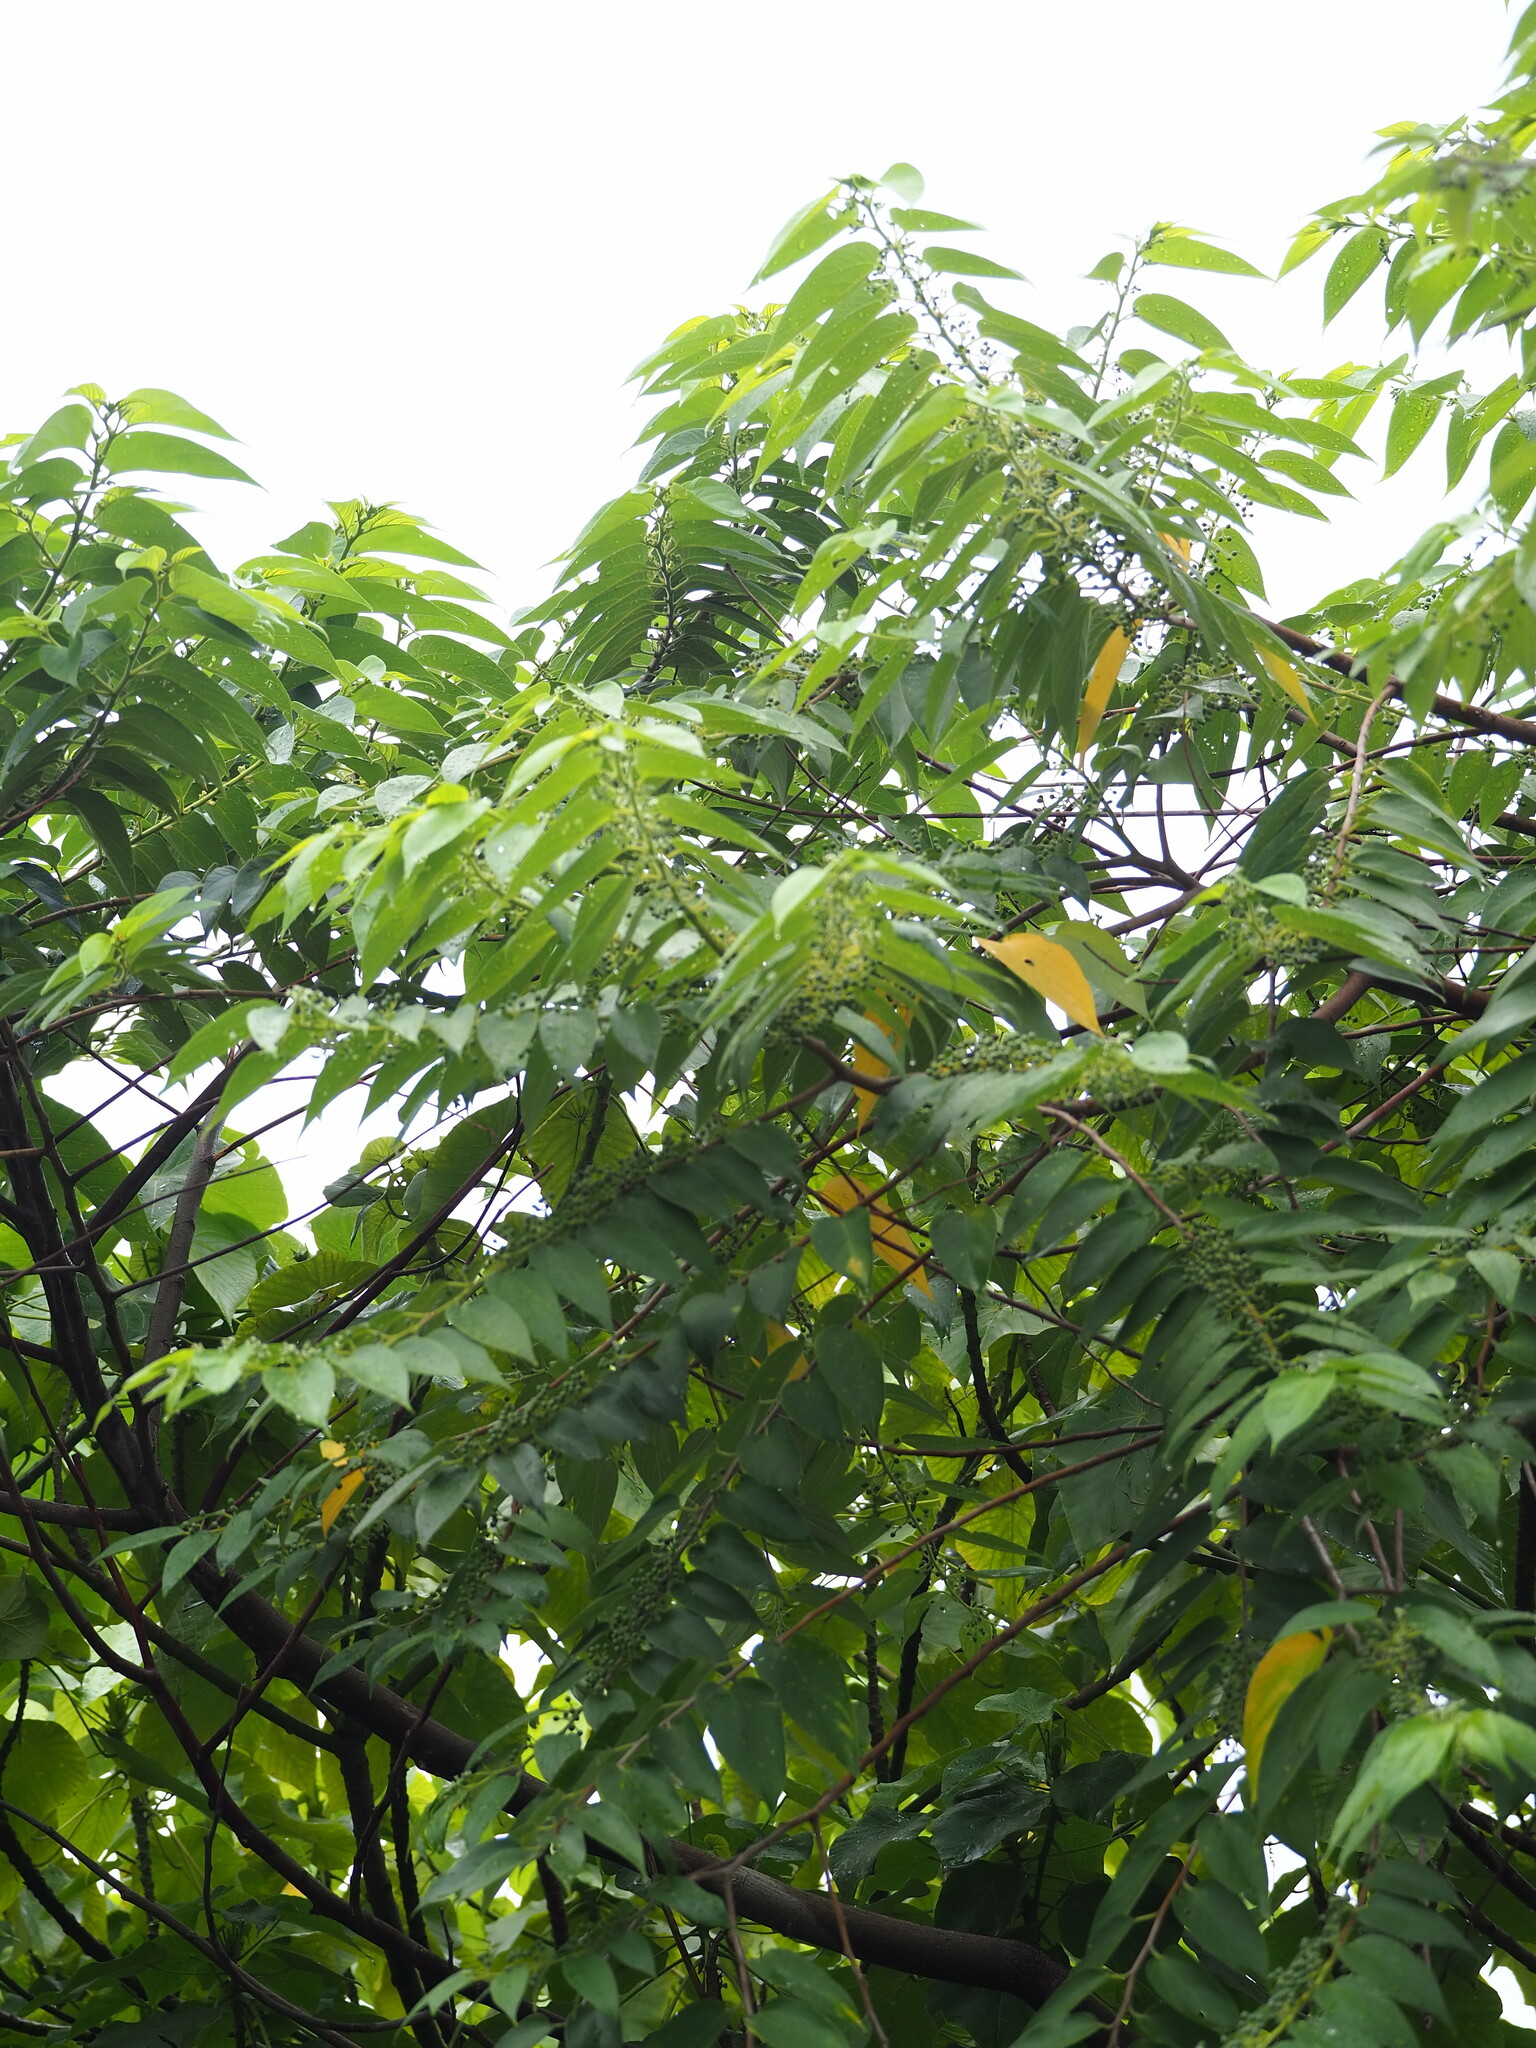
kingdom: Plantae
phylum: Tracheophyta
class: Magnoliopsida
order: Rosales
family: Cannabaceae
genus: Trema
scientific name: Trema orientale
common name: Indian charcoal tree
